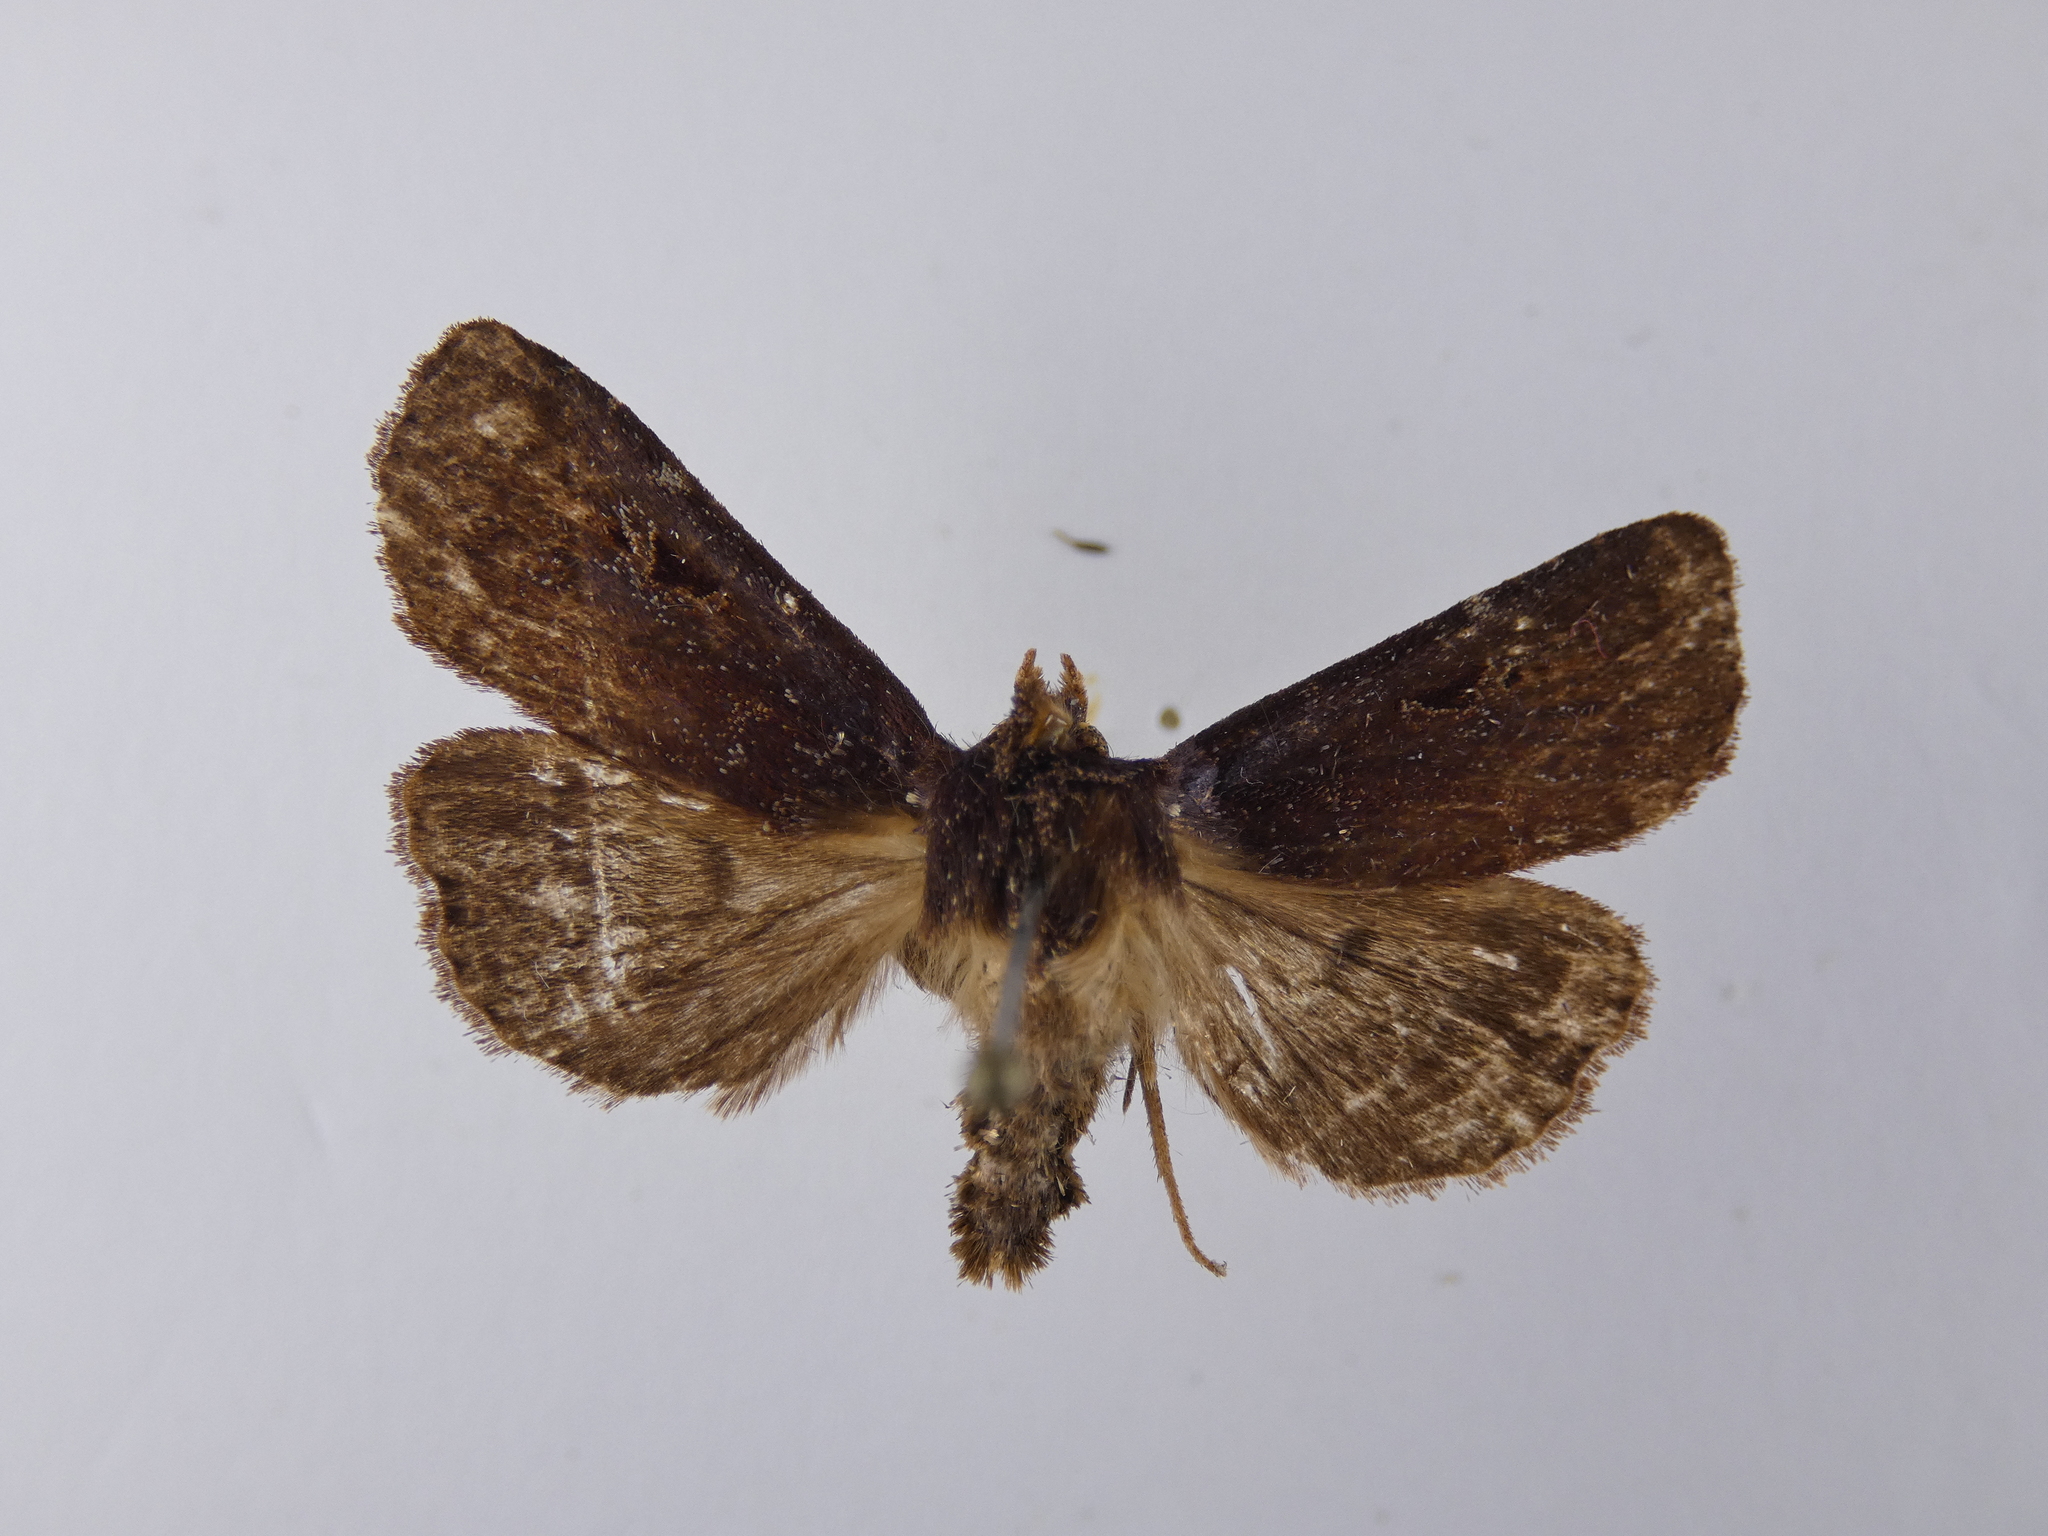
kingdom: Animalia
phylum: Arthropoda
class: Insecta
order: Lepidoptera
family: Noctuidae
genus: Austramathes
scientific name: Austramathes purpurea
